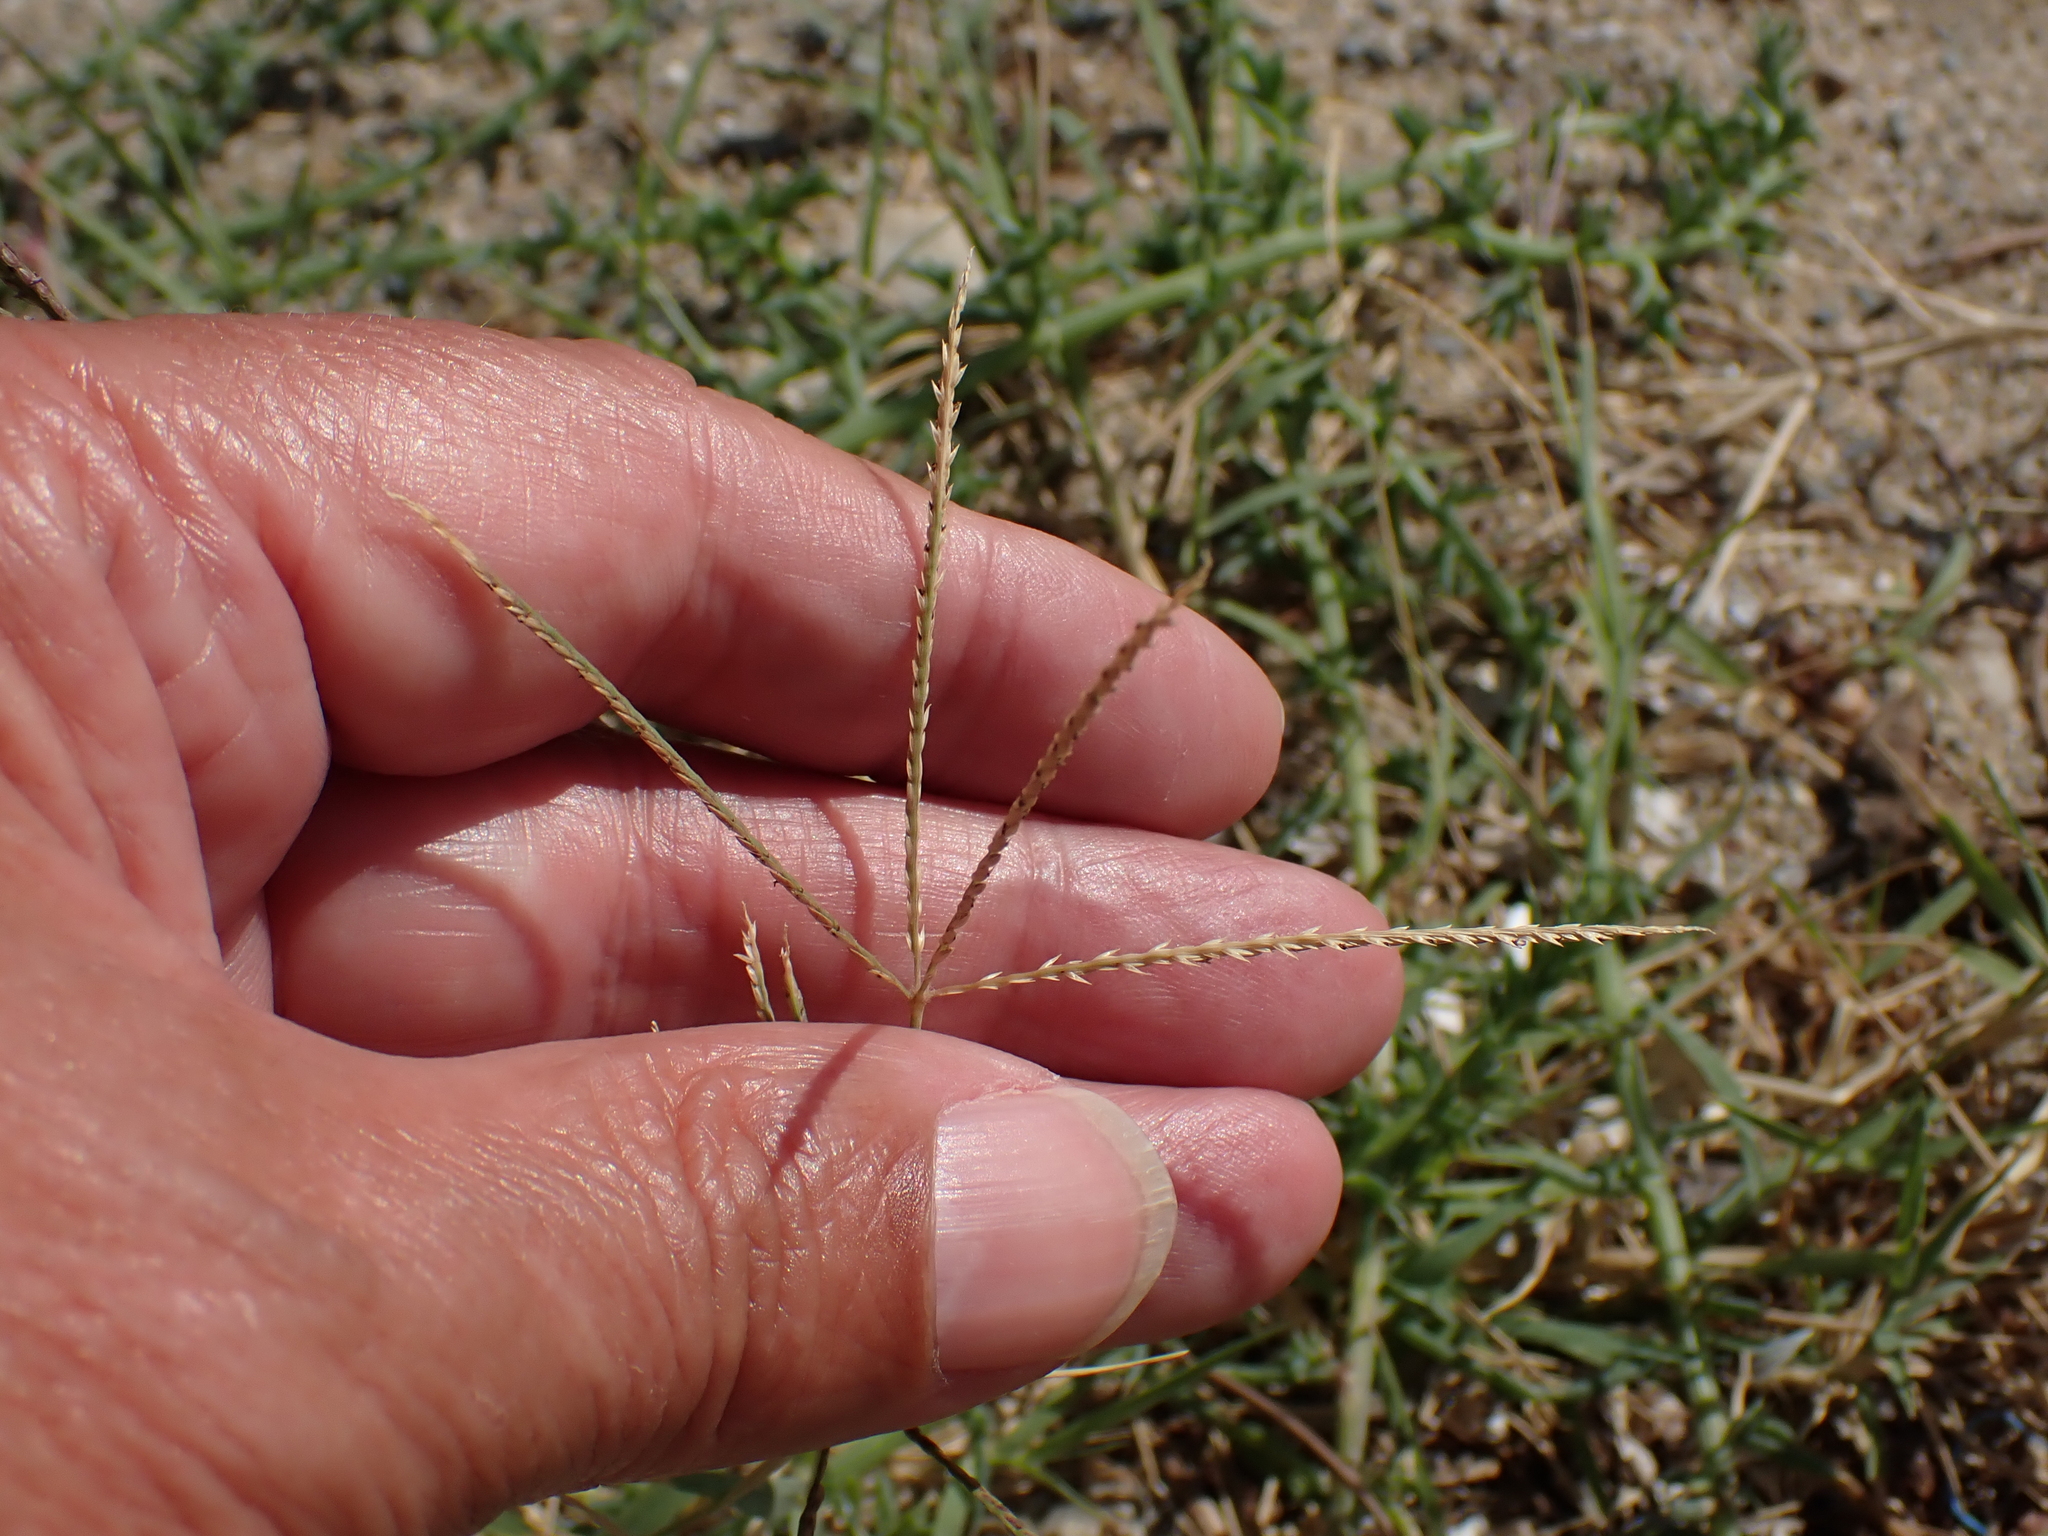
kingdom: Plantae
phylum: Tracheophyta
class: Liliopsida
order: Poales
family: Poaceae
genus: Cynodon
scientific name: Cynodon dactylon
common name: Bermuda grass
